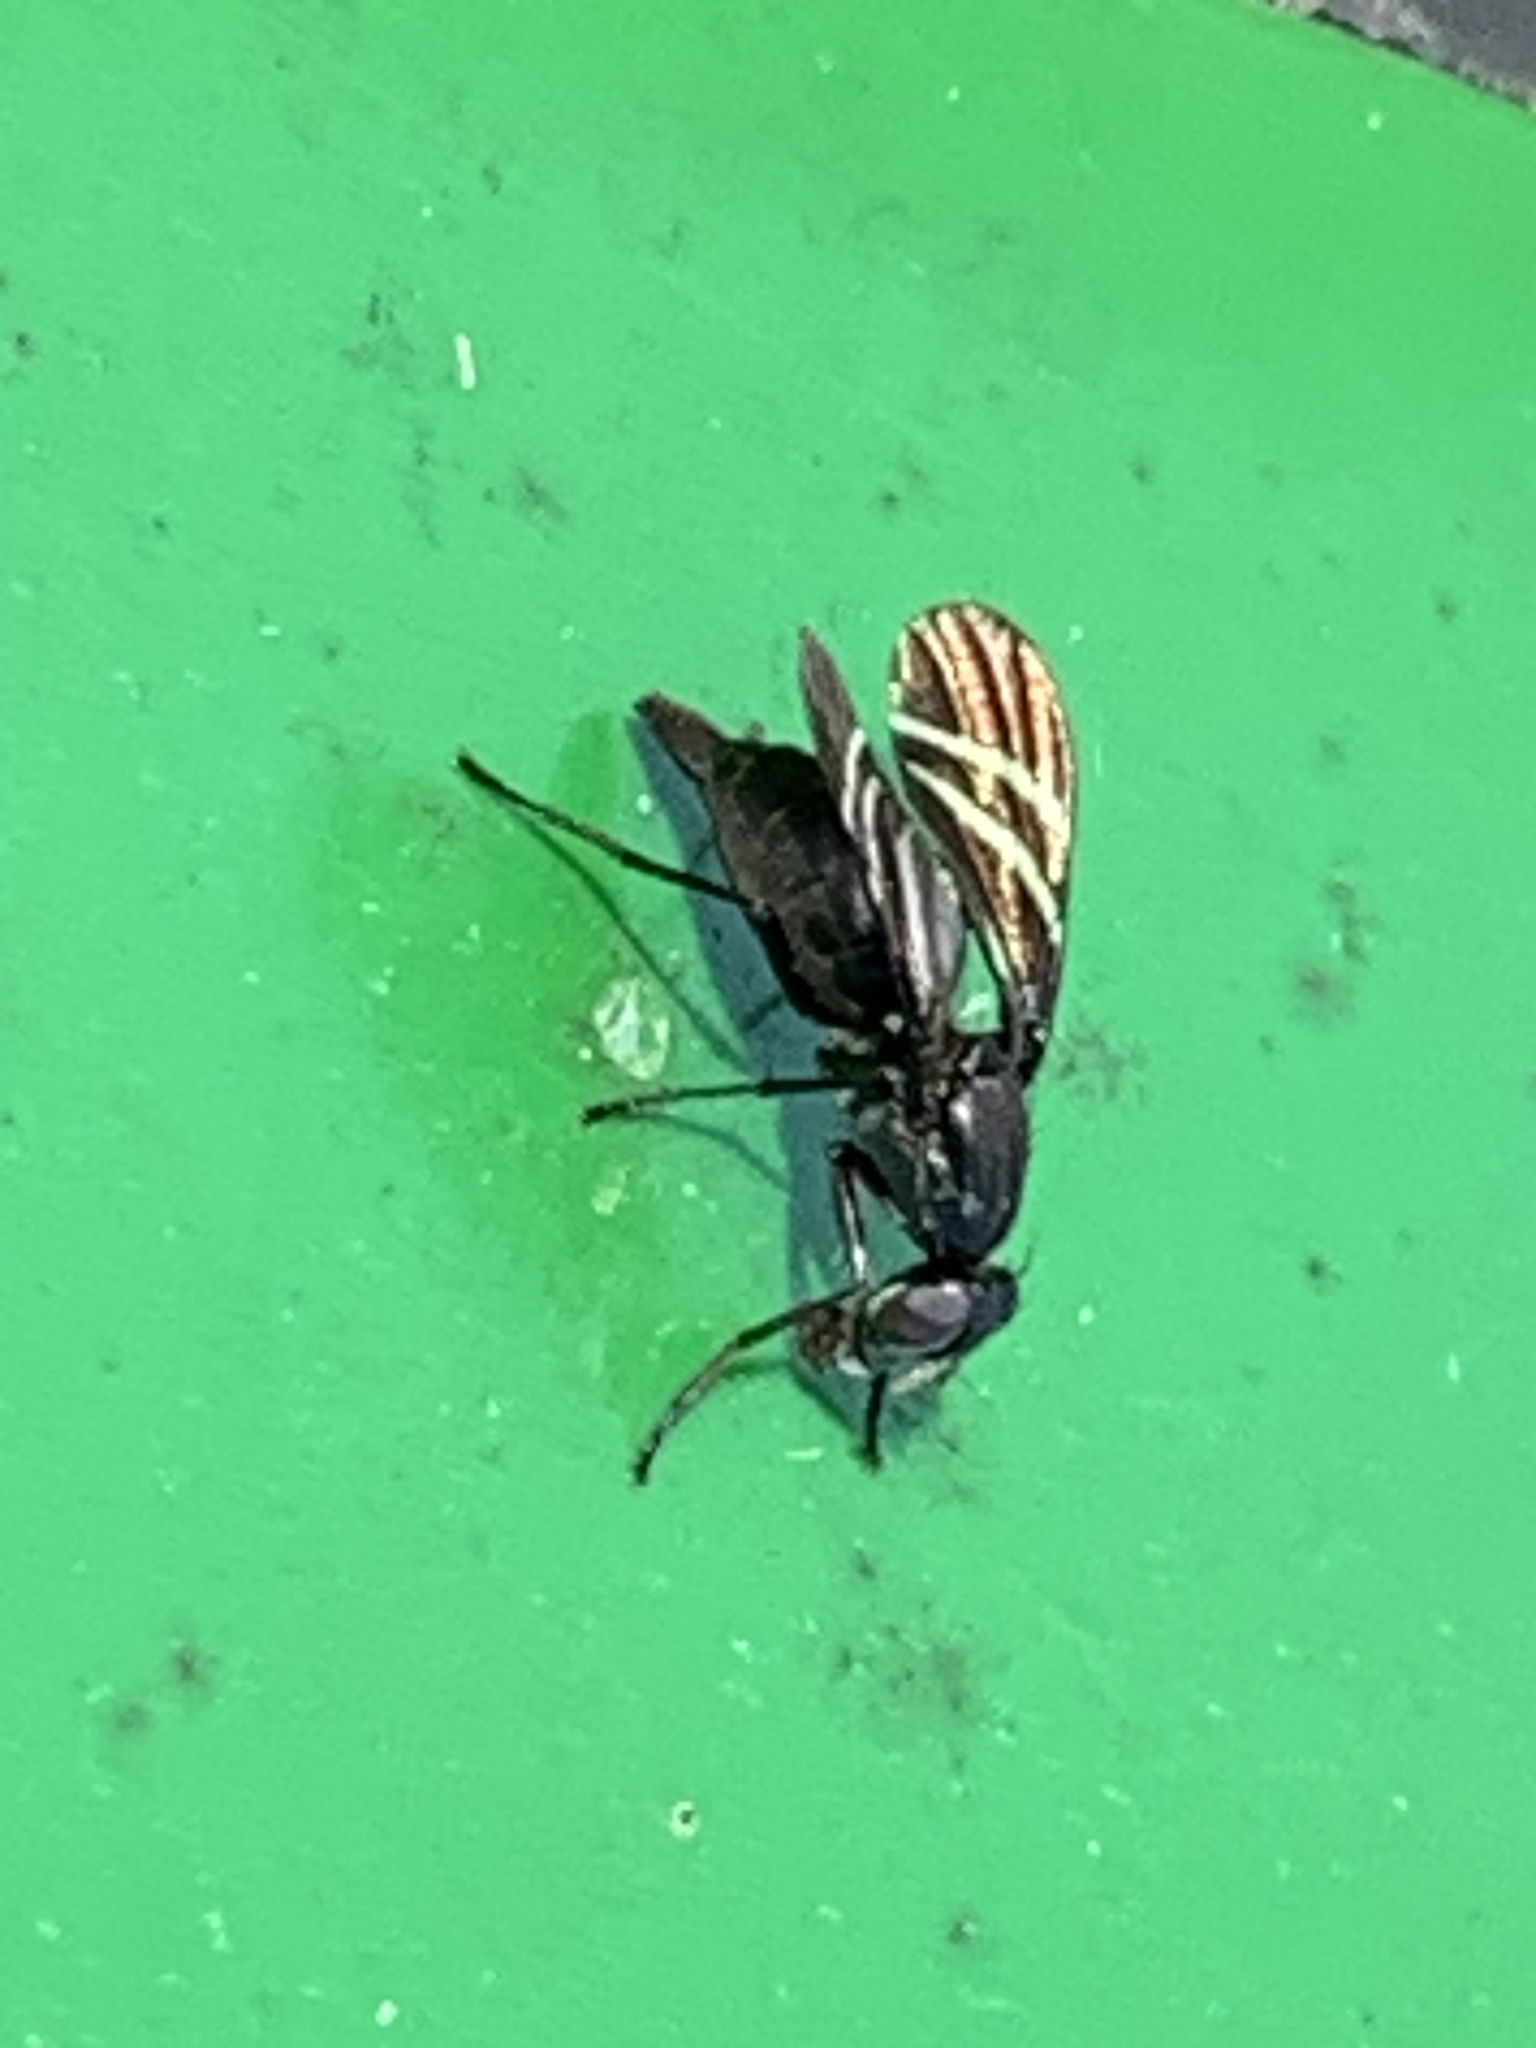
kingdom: Animalia
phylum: Arthropoda
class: Insecta
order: Diptera
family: Ulidiidae
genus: Tritoxa
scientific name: Tritoxa flexa
